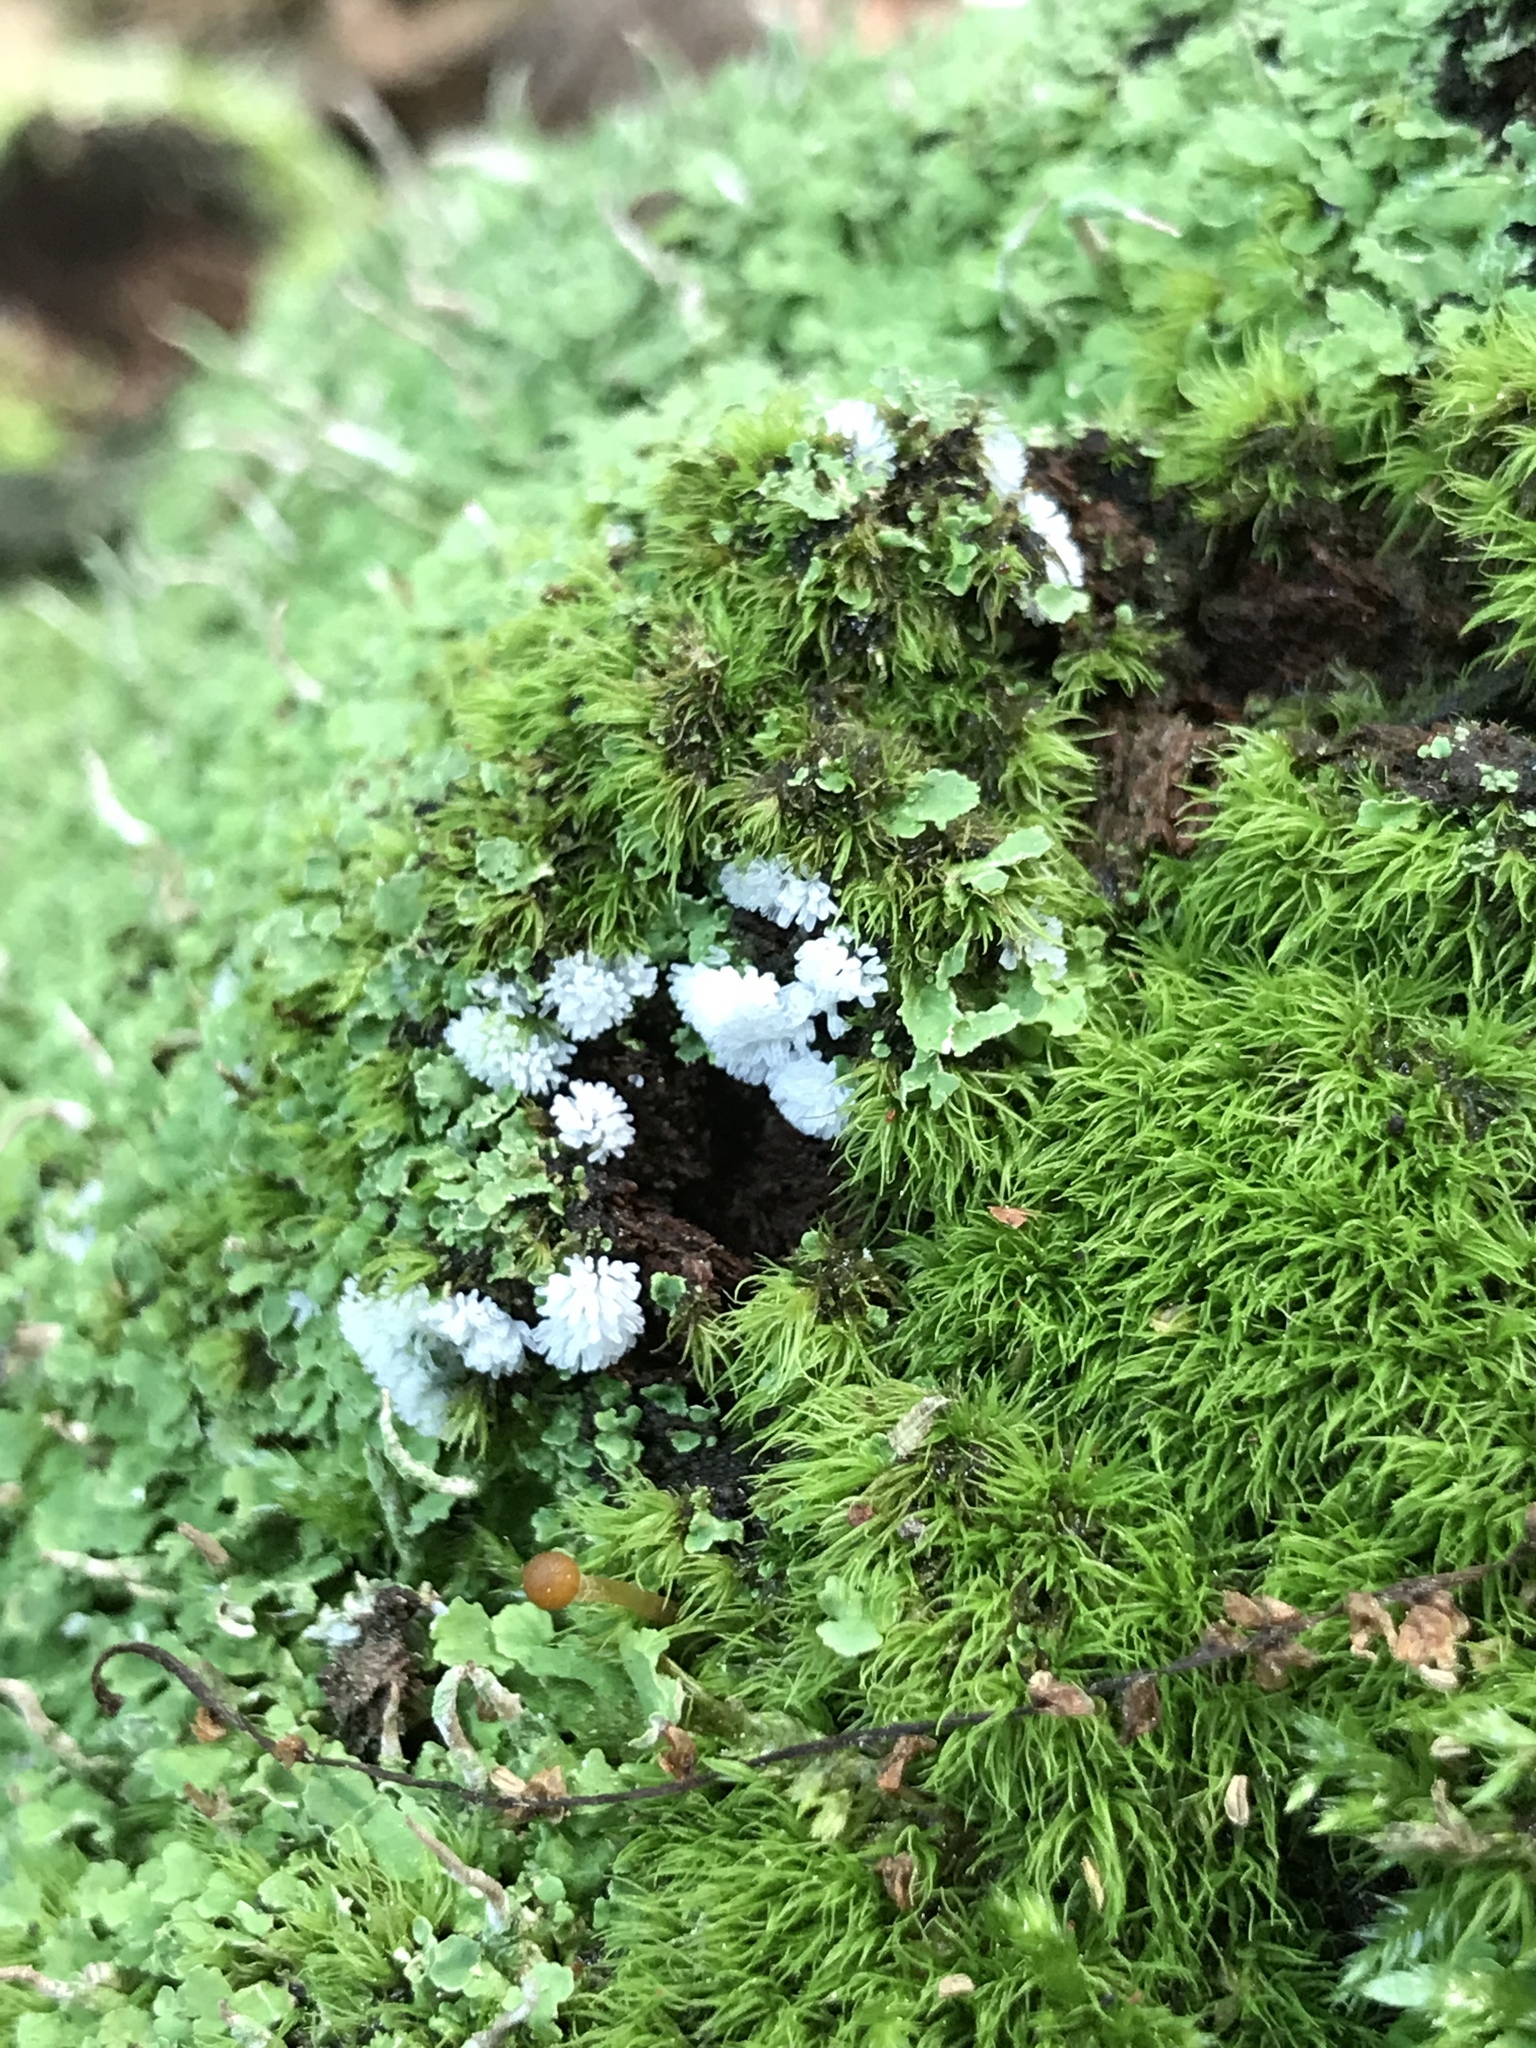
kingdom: Protozoa
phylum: Mycetozoa
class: Protosteliomycetes
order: Ceratiomyxales
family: Ceratiomyxaceae
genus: Ceratiomyxa
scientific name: Ceratiomyxa fruticulosa
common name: Honeycomb coral slime mold
